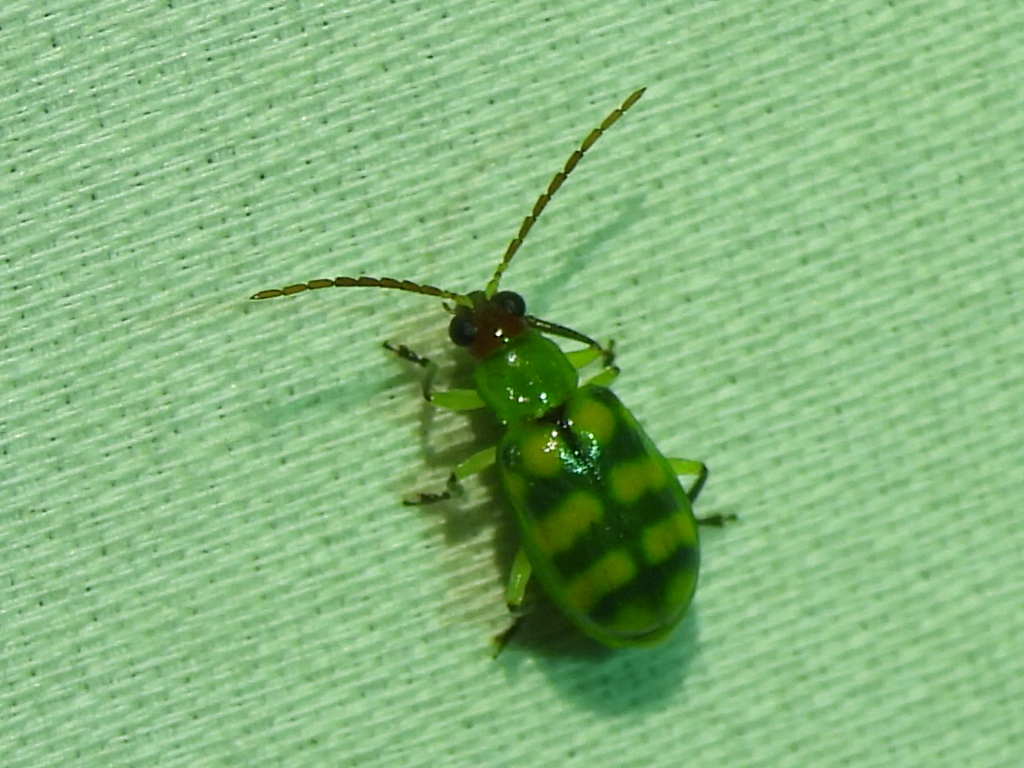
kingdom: Animalia
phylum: Arthropoda
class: Insecta
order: Coleoptera
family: Chrysomelidae
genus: Diabrotica
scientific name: Diabrotica balteata
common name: Leaf beetle
